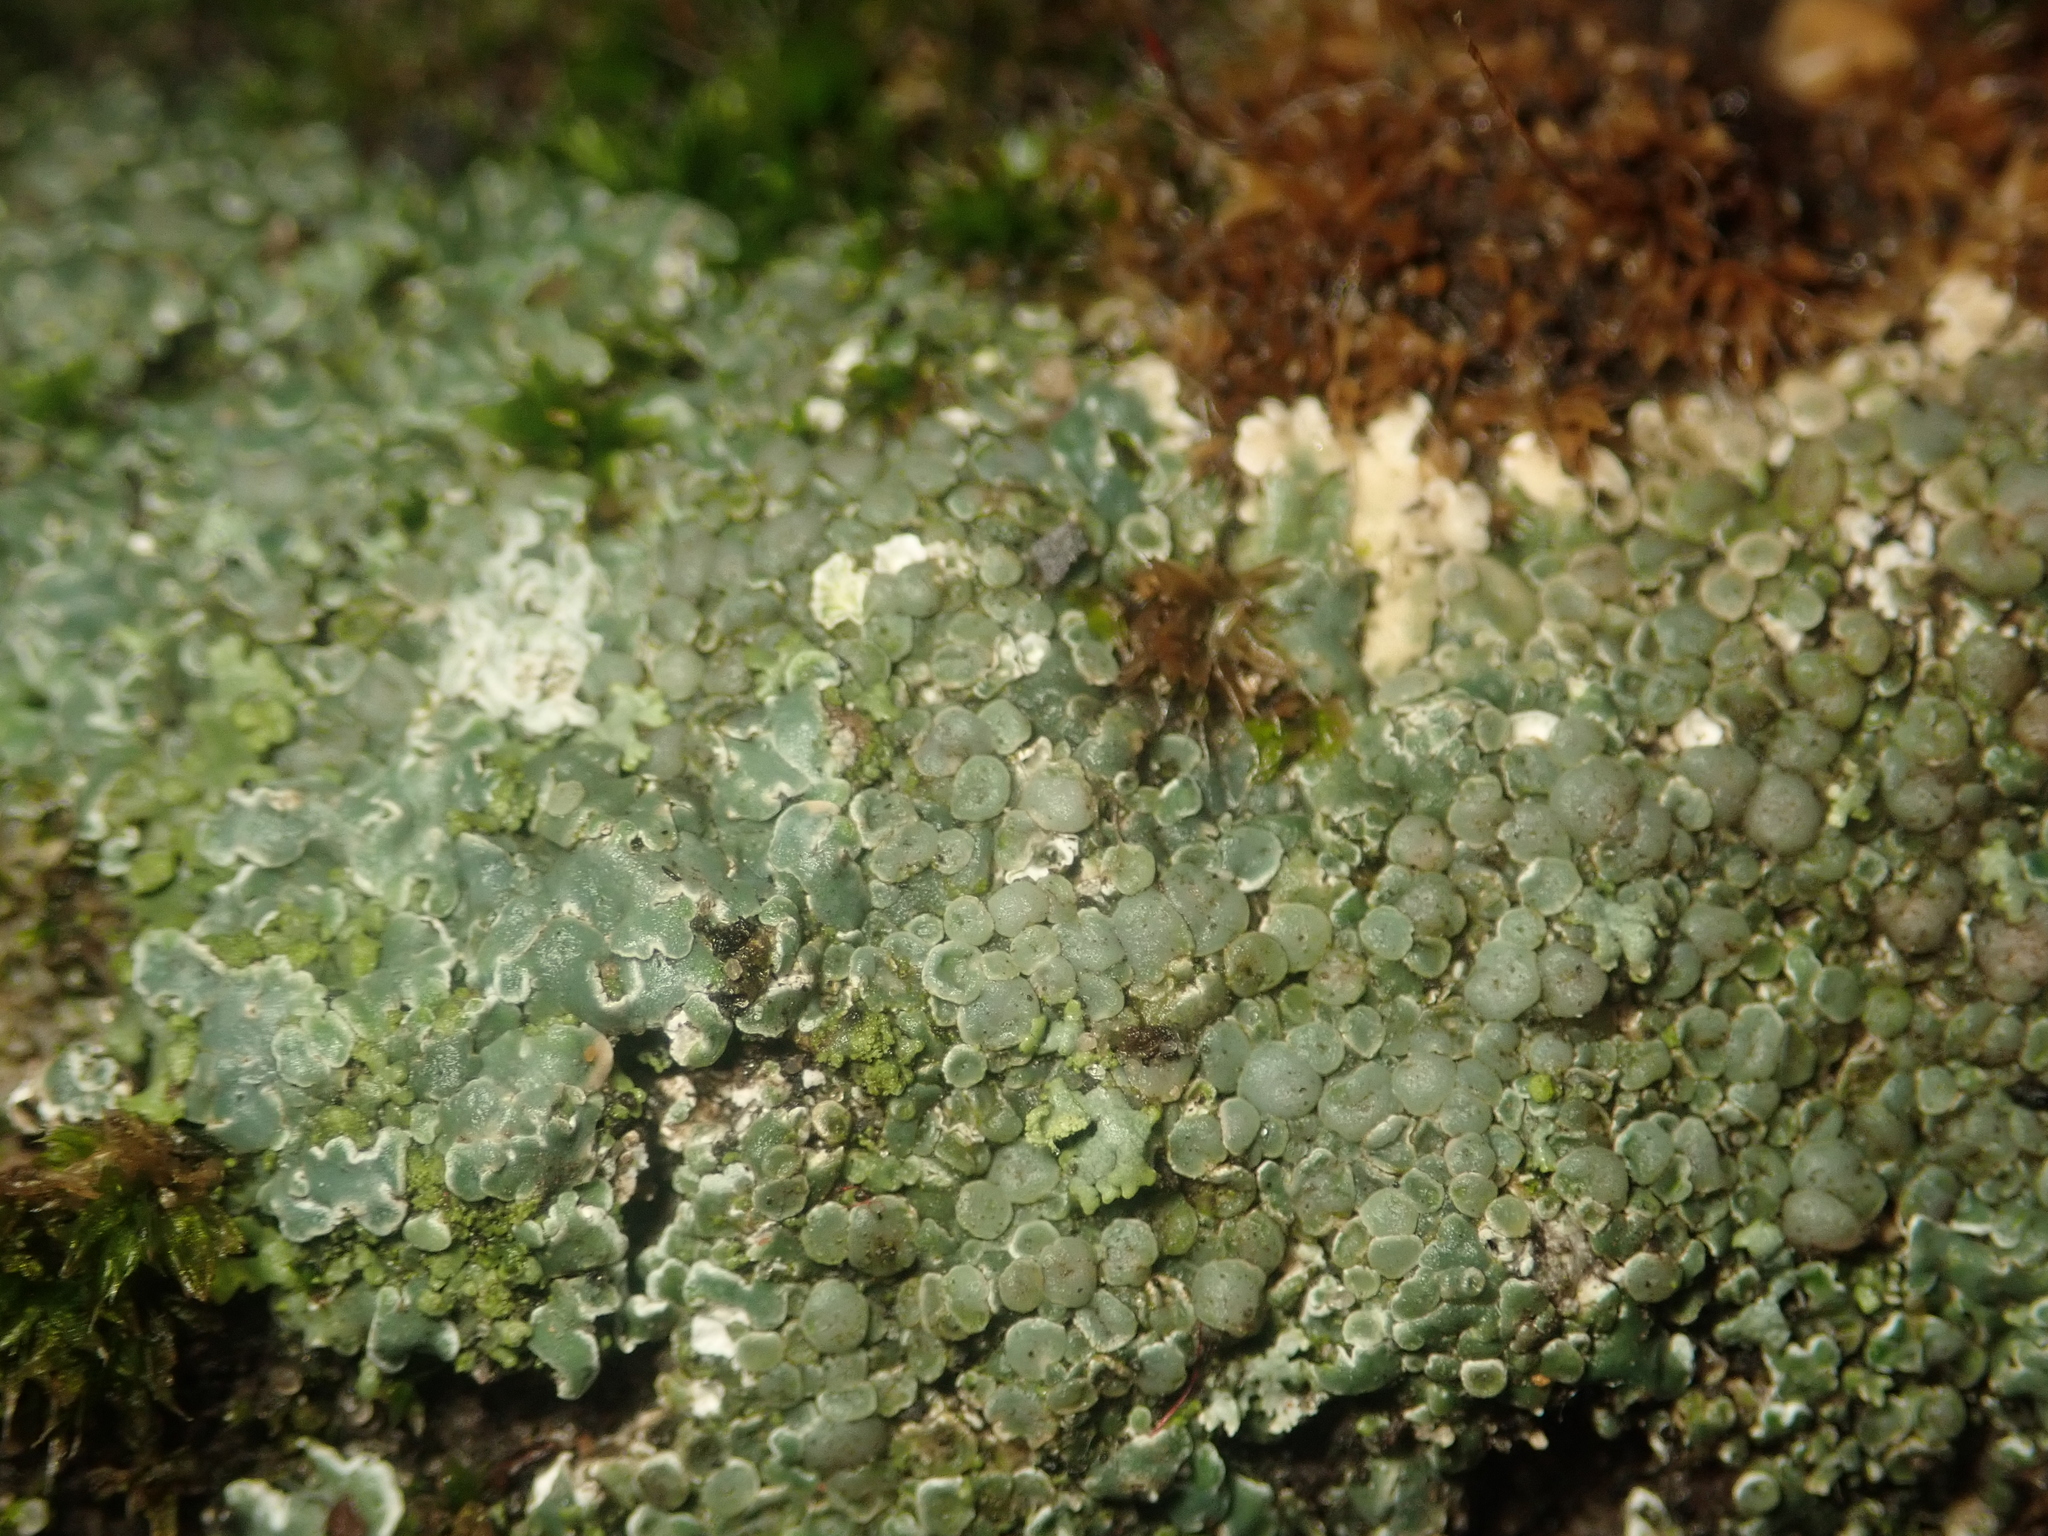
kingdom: Fungi
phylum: Ascomycota
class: Lecanoromycetes
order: Lecanorales
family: Lecanoraceae
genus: Protoparmeliopsis
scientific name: Protoparmeliopsis muralis
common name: Stonewall rim lichen
